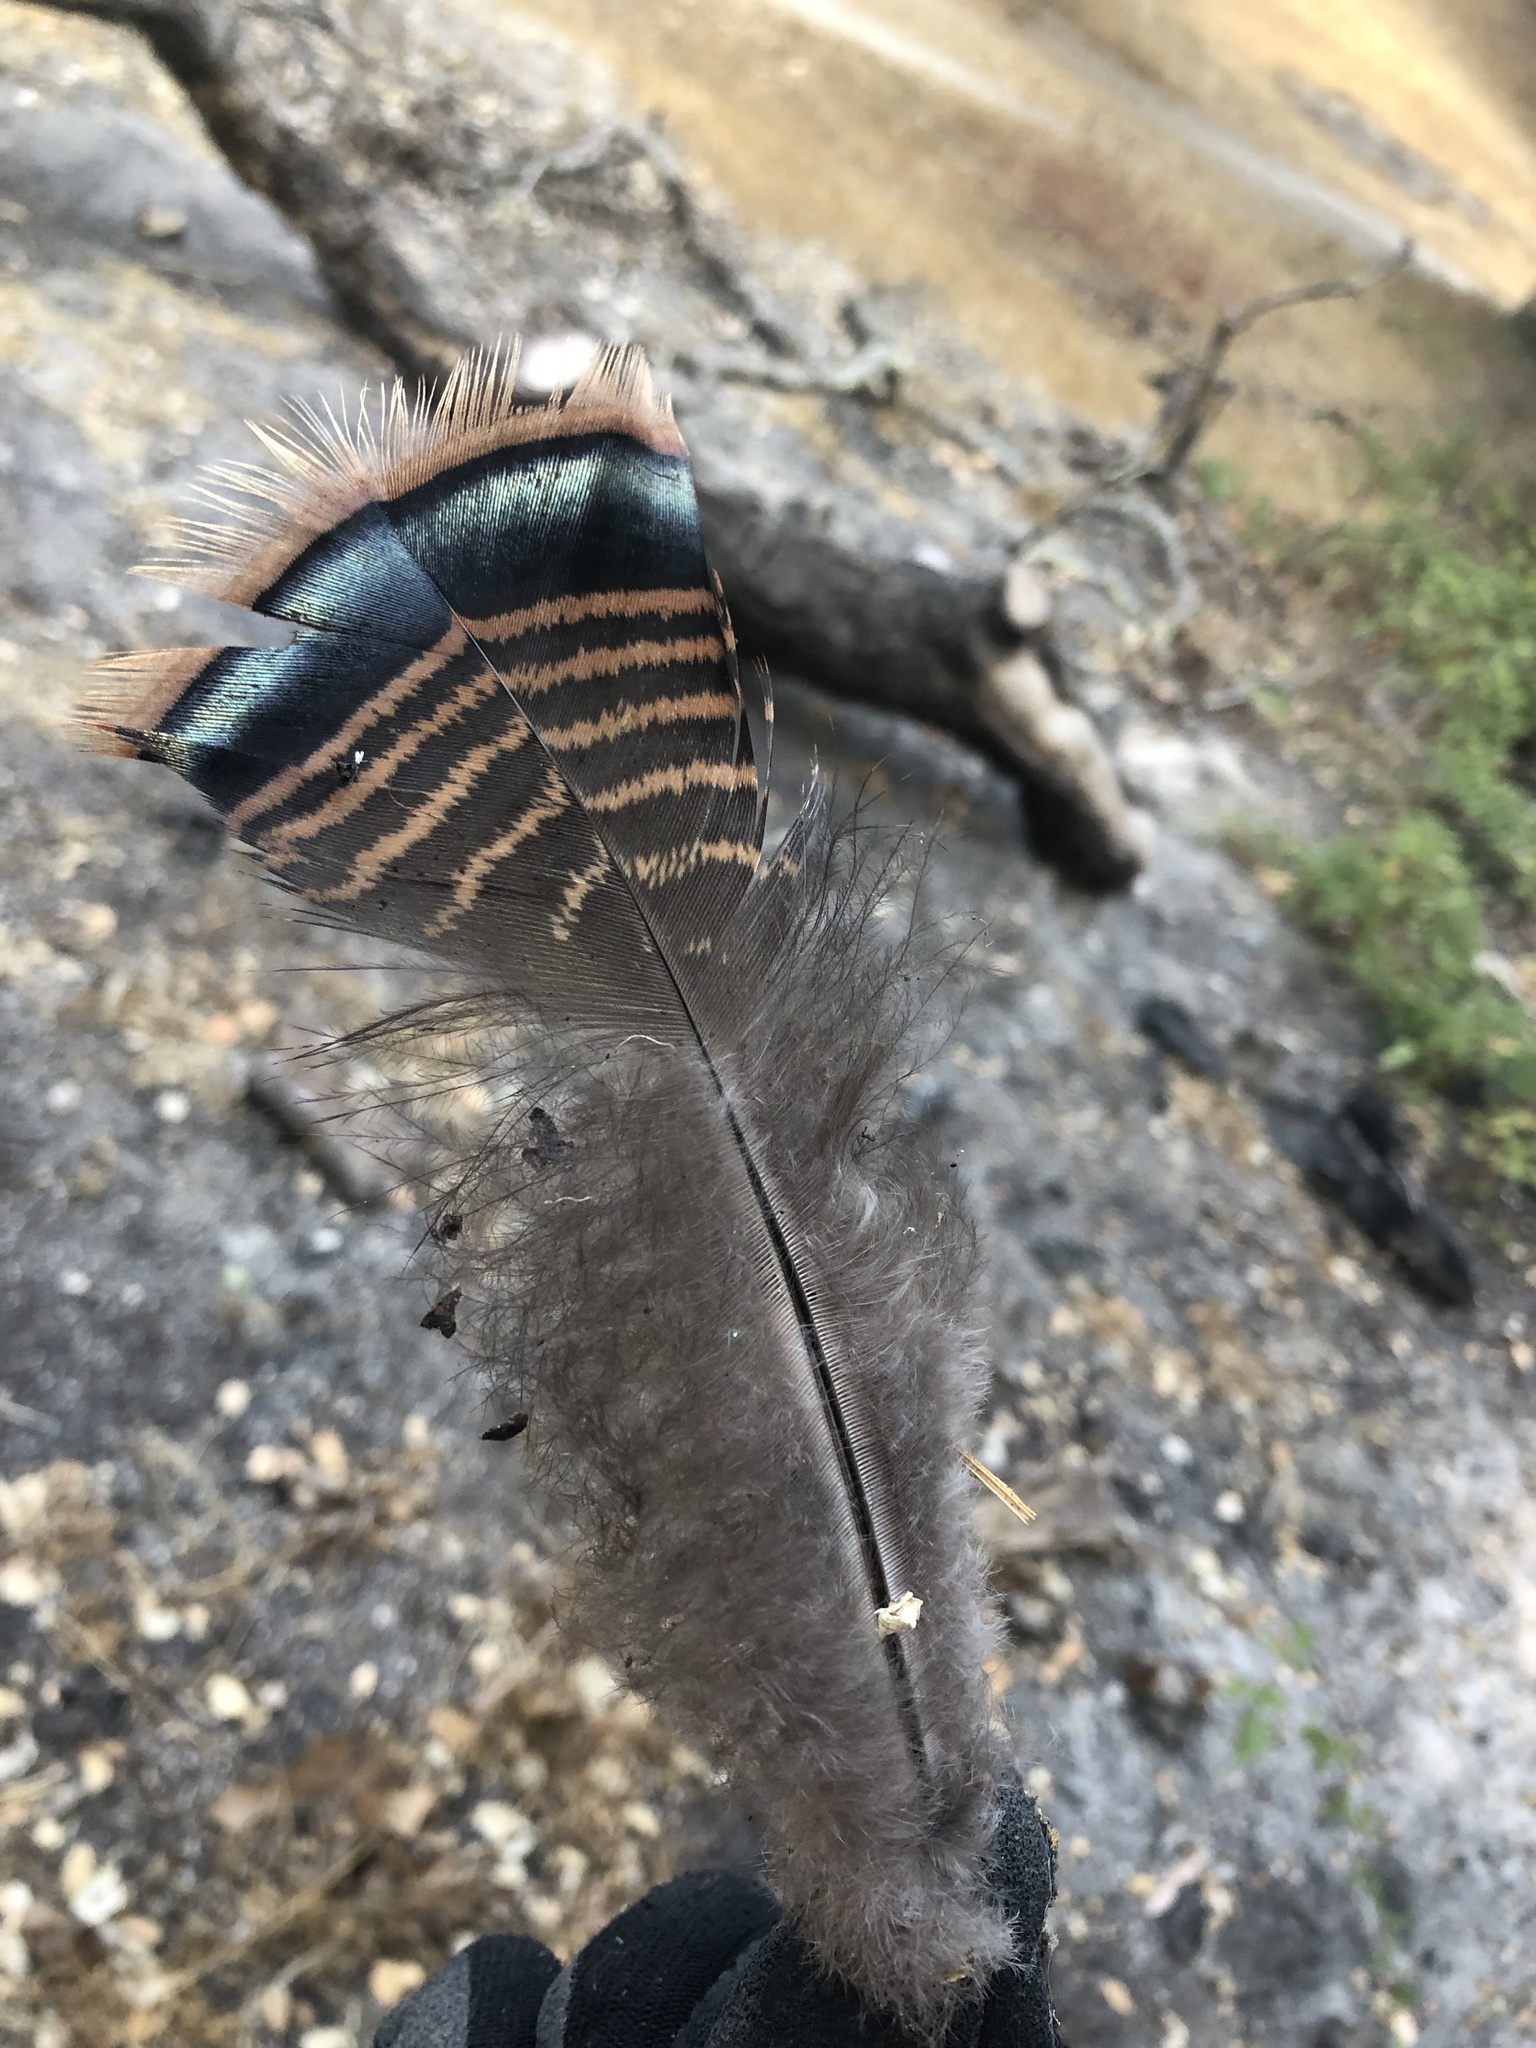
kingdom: Animalia
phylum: Chordata
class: Aves
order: Galliformes
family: Phasianidae
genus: Meleagris
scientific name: Meleagris gallopavo
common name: Wild turkey
